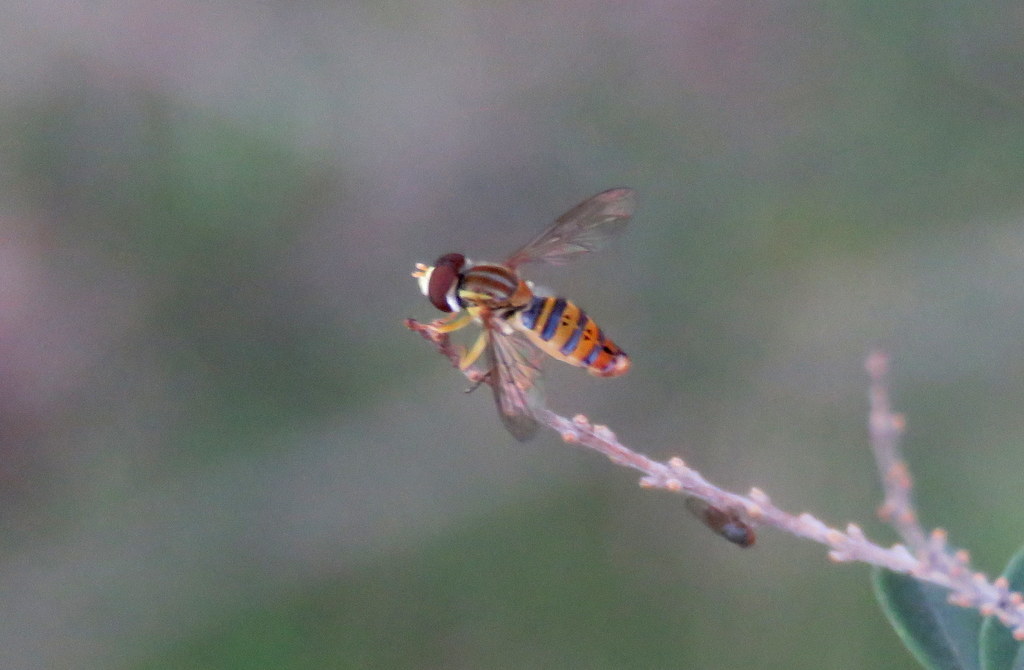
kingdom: Animalia
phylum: Arthropoda
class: Insecta
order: Diptera
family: Syrphidae
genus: Toxomerus
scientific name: Toxomerus
